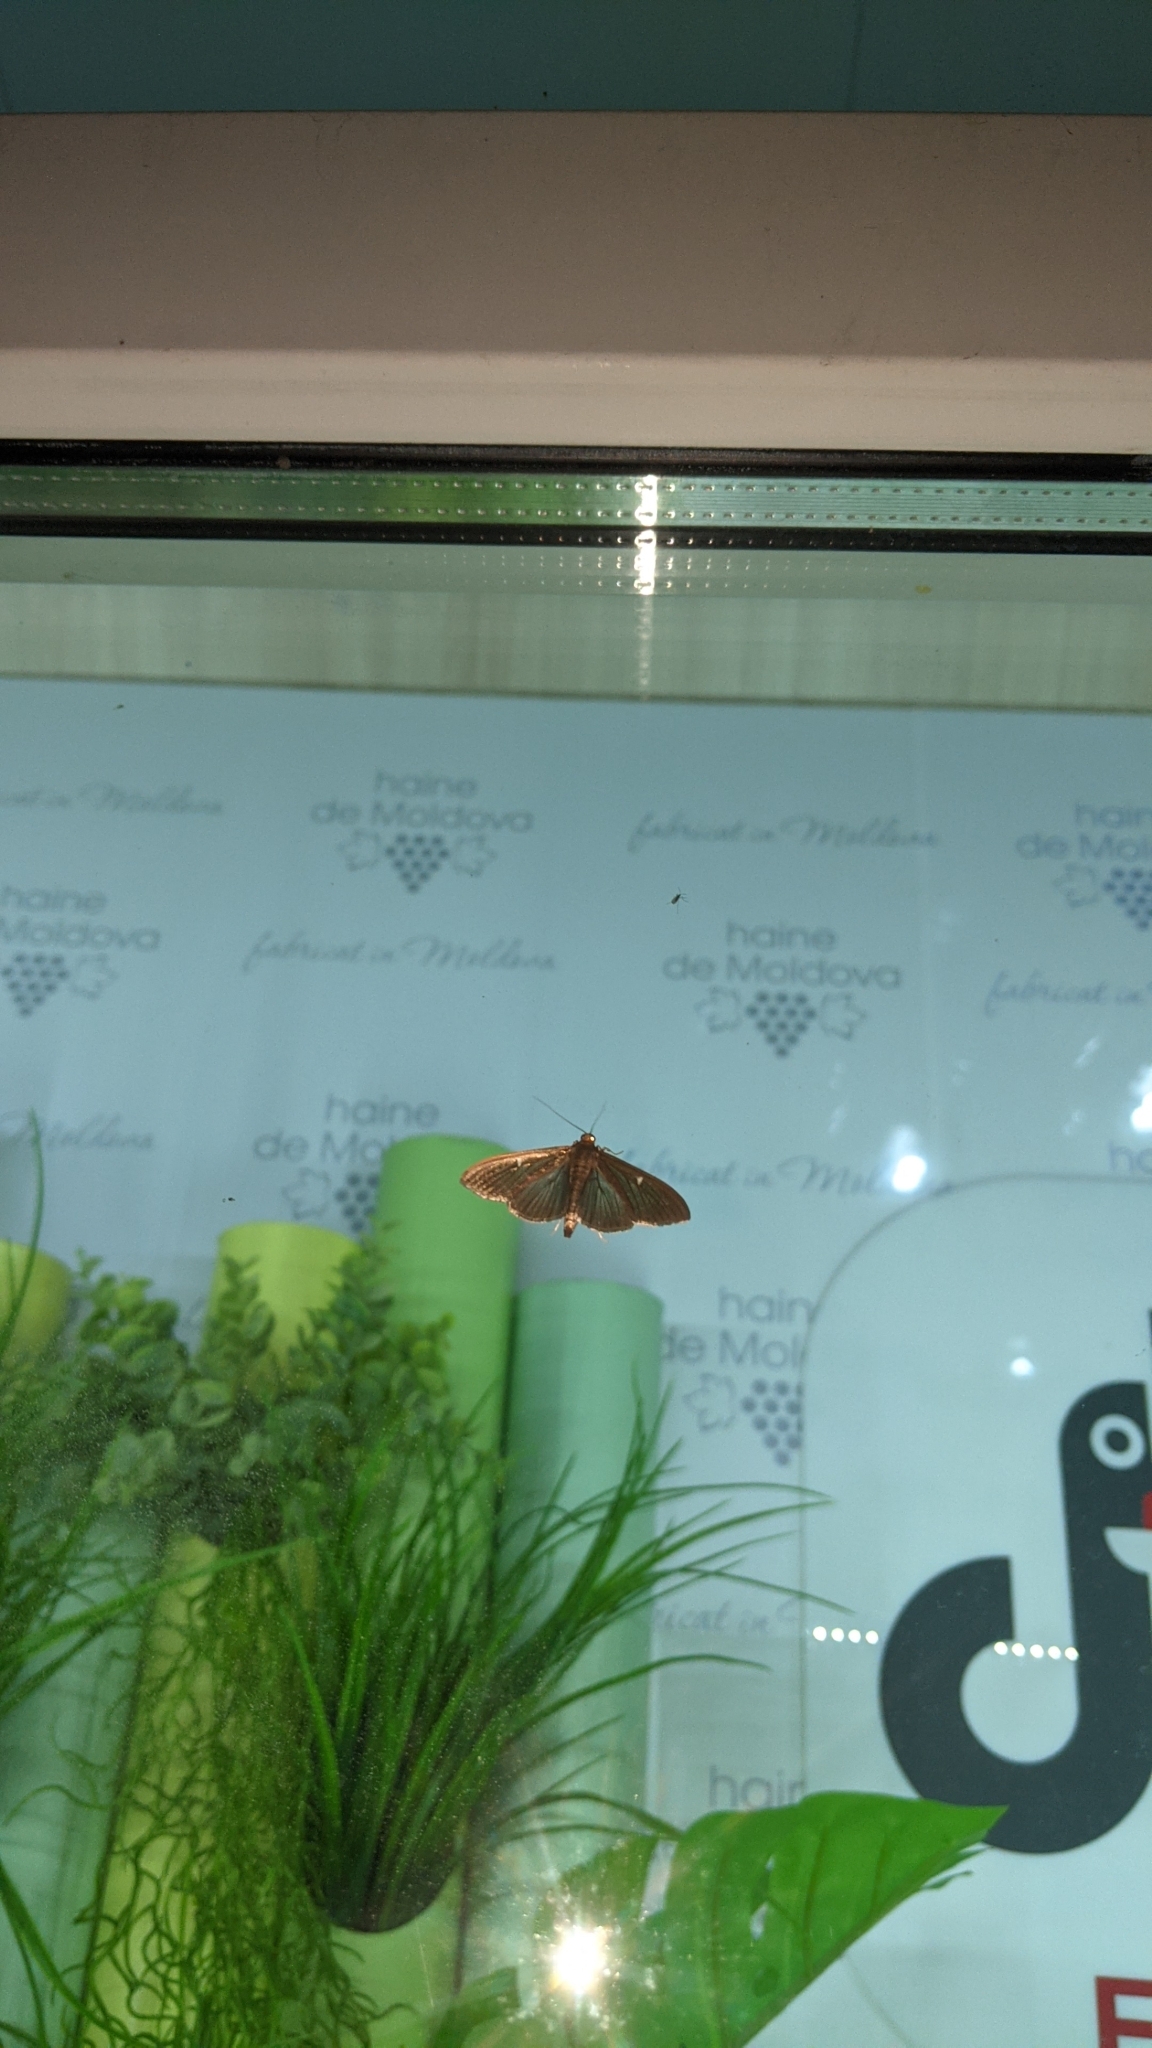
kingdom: Animalia
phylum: Arthropoda
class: Insecta
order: Lepidoptera
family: Crambidae
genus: Cydalima
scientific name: Cydalima perspectalis
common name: Box tree moth
